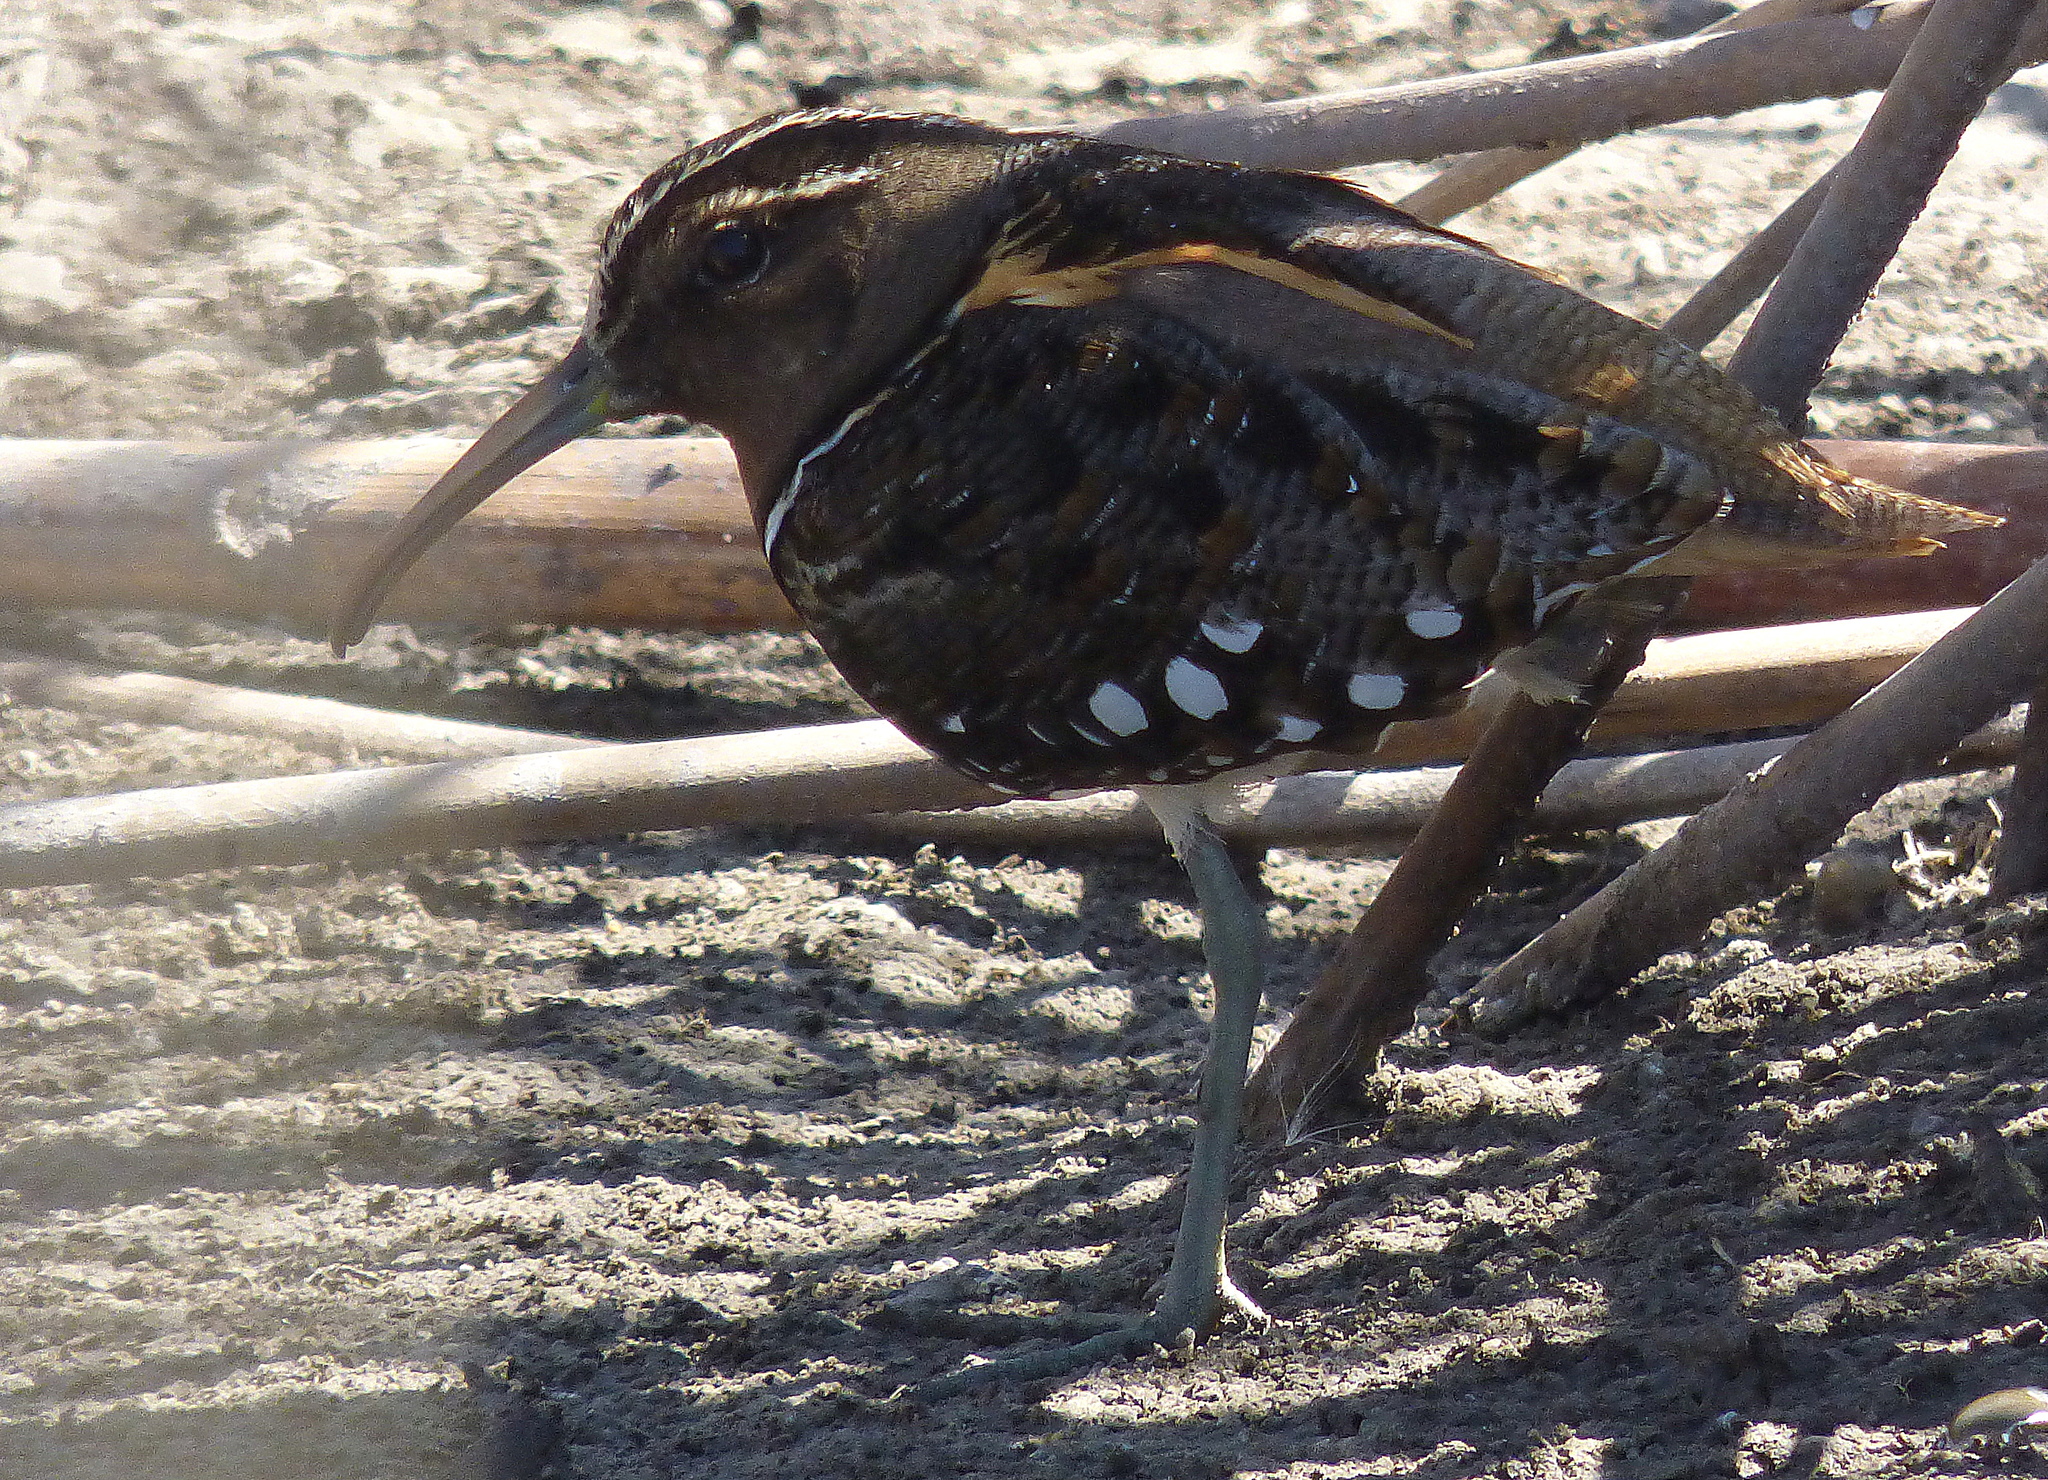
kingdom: Animalia
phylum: Chordata
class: Aves
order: Charadriiformes
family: Rostratulidae
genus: Nycticryphes
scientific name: Nycticryphes semicollaris
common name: South american painted-snipe
